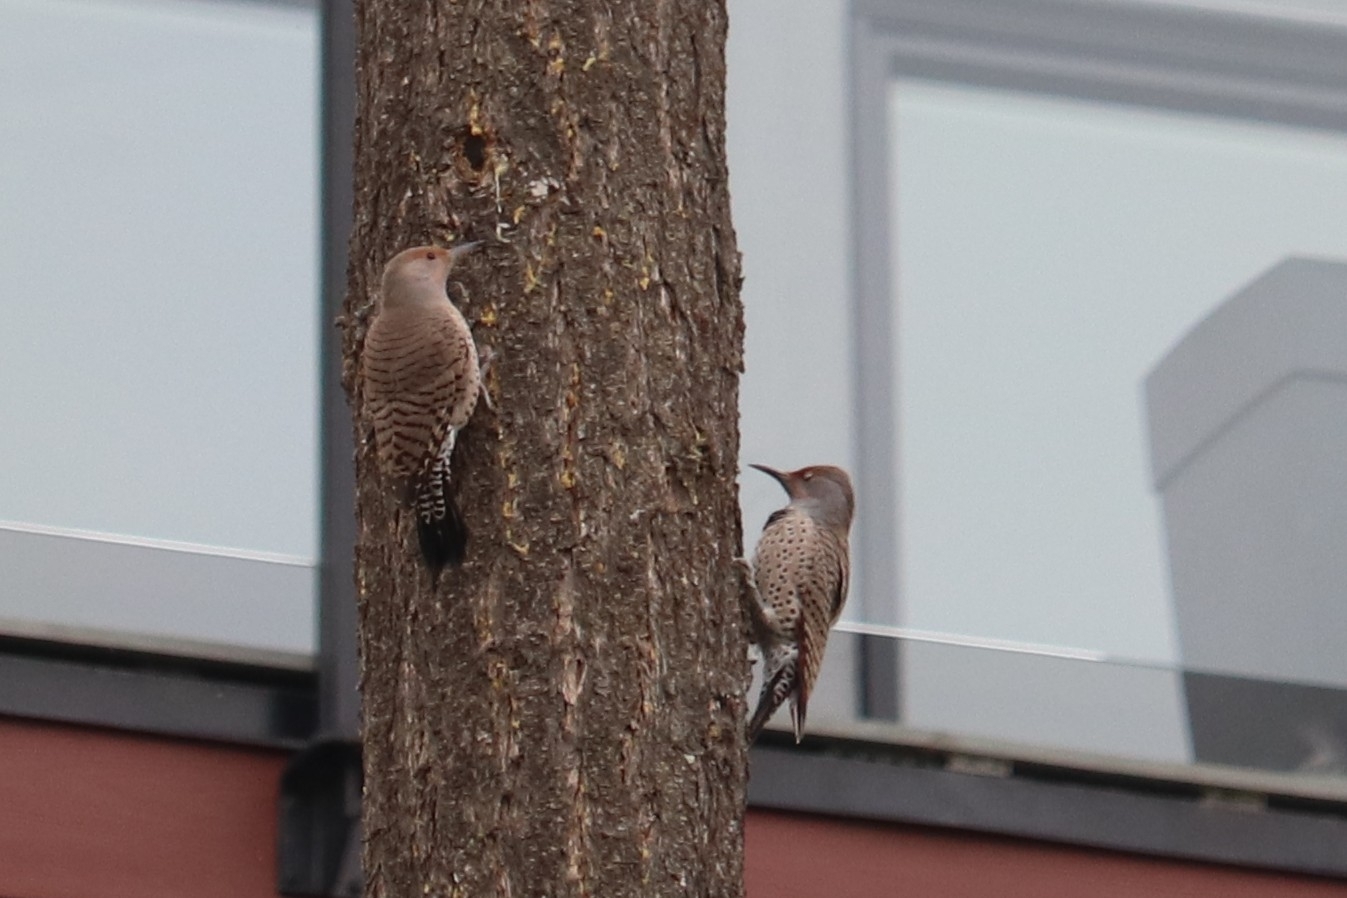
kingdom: Animalia
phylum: Chordata
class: Aves
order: Piciformes
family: Picidae
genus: Colaptes
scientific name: Colaptes auratus
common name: Northern flicker
